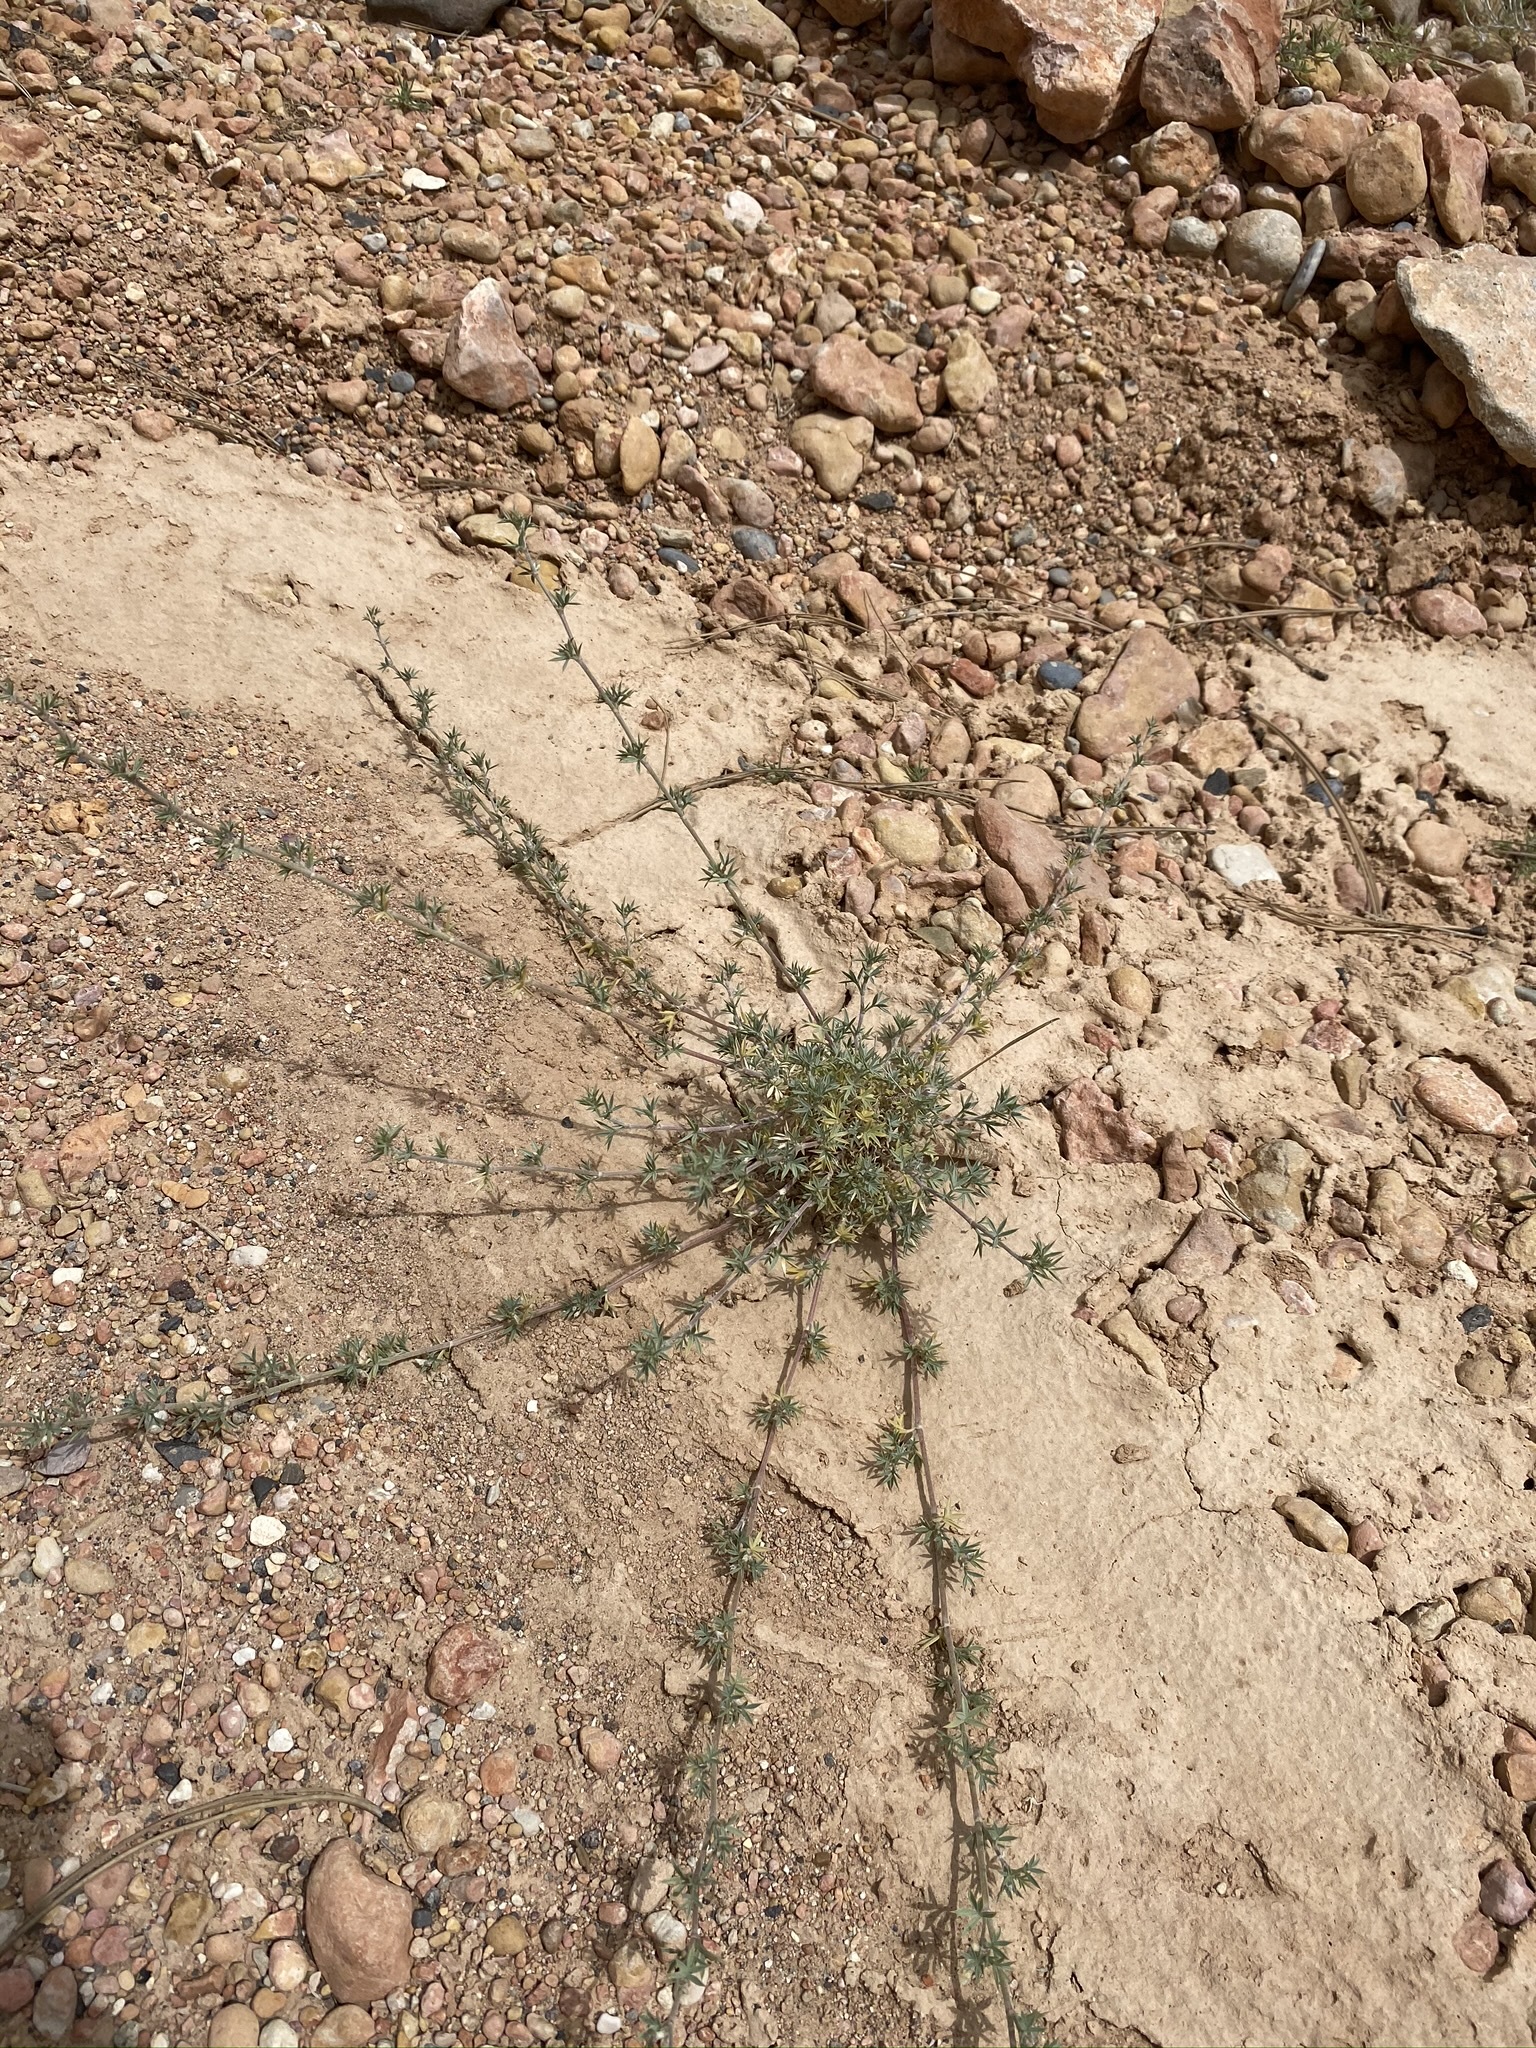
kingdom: Plantae
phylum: Tracheophyta
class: Magnoliopsida
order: Fabales
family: Fabaceae
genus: Astragalus
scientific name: Astragalus kentrophyta
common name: Prickly milk-vetch
